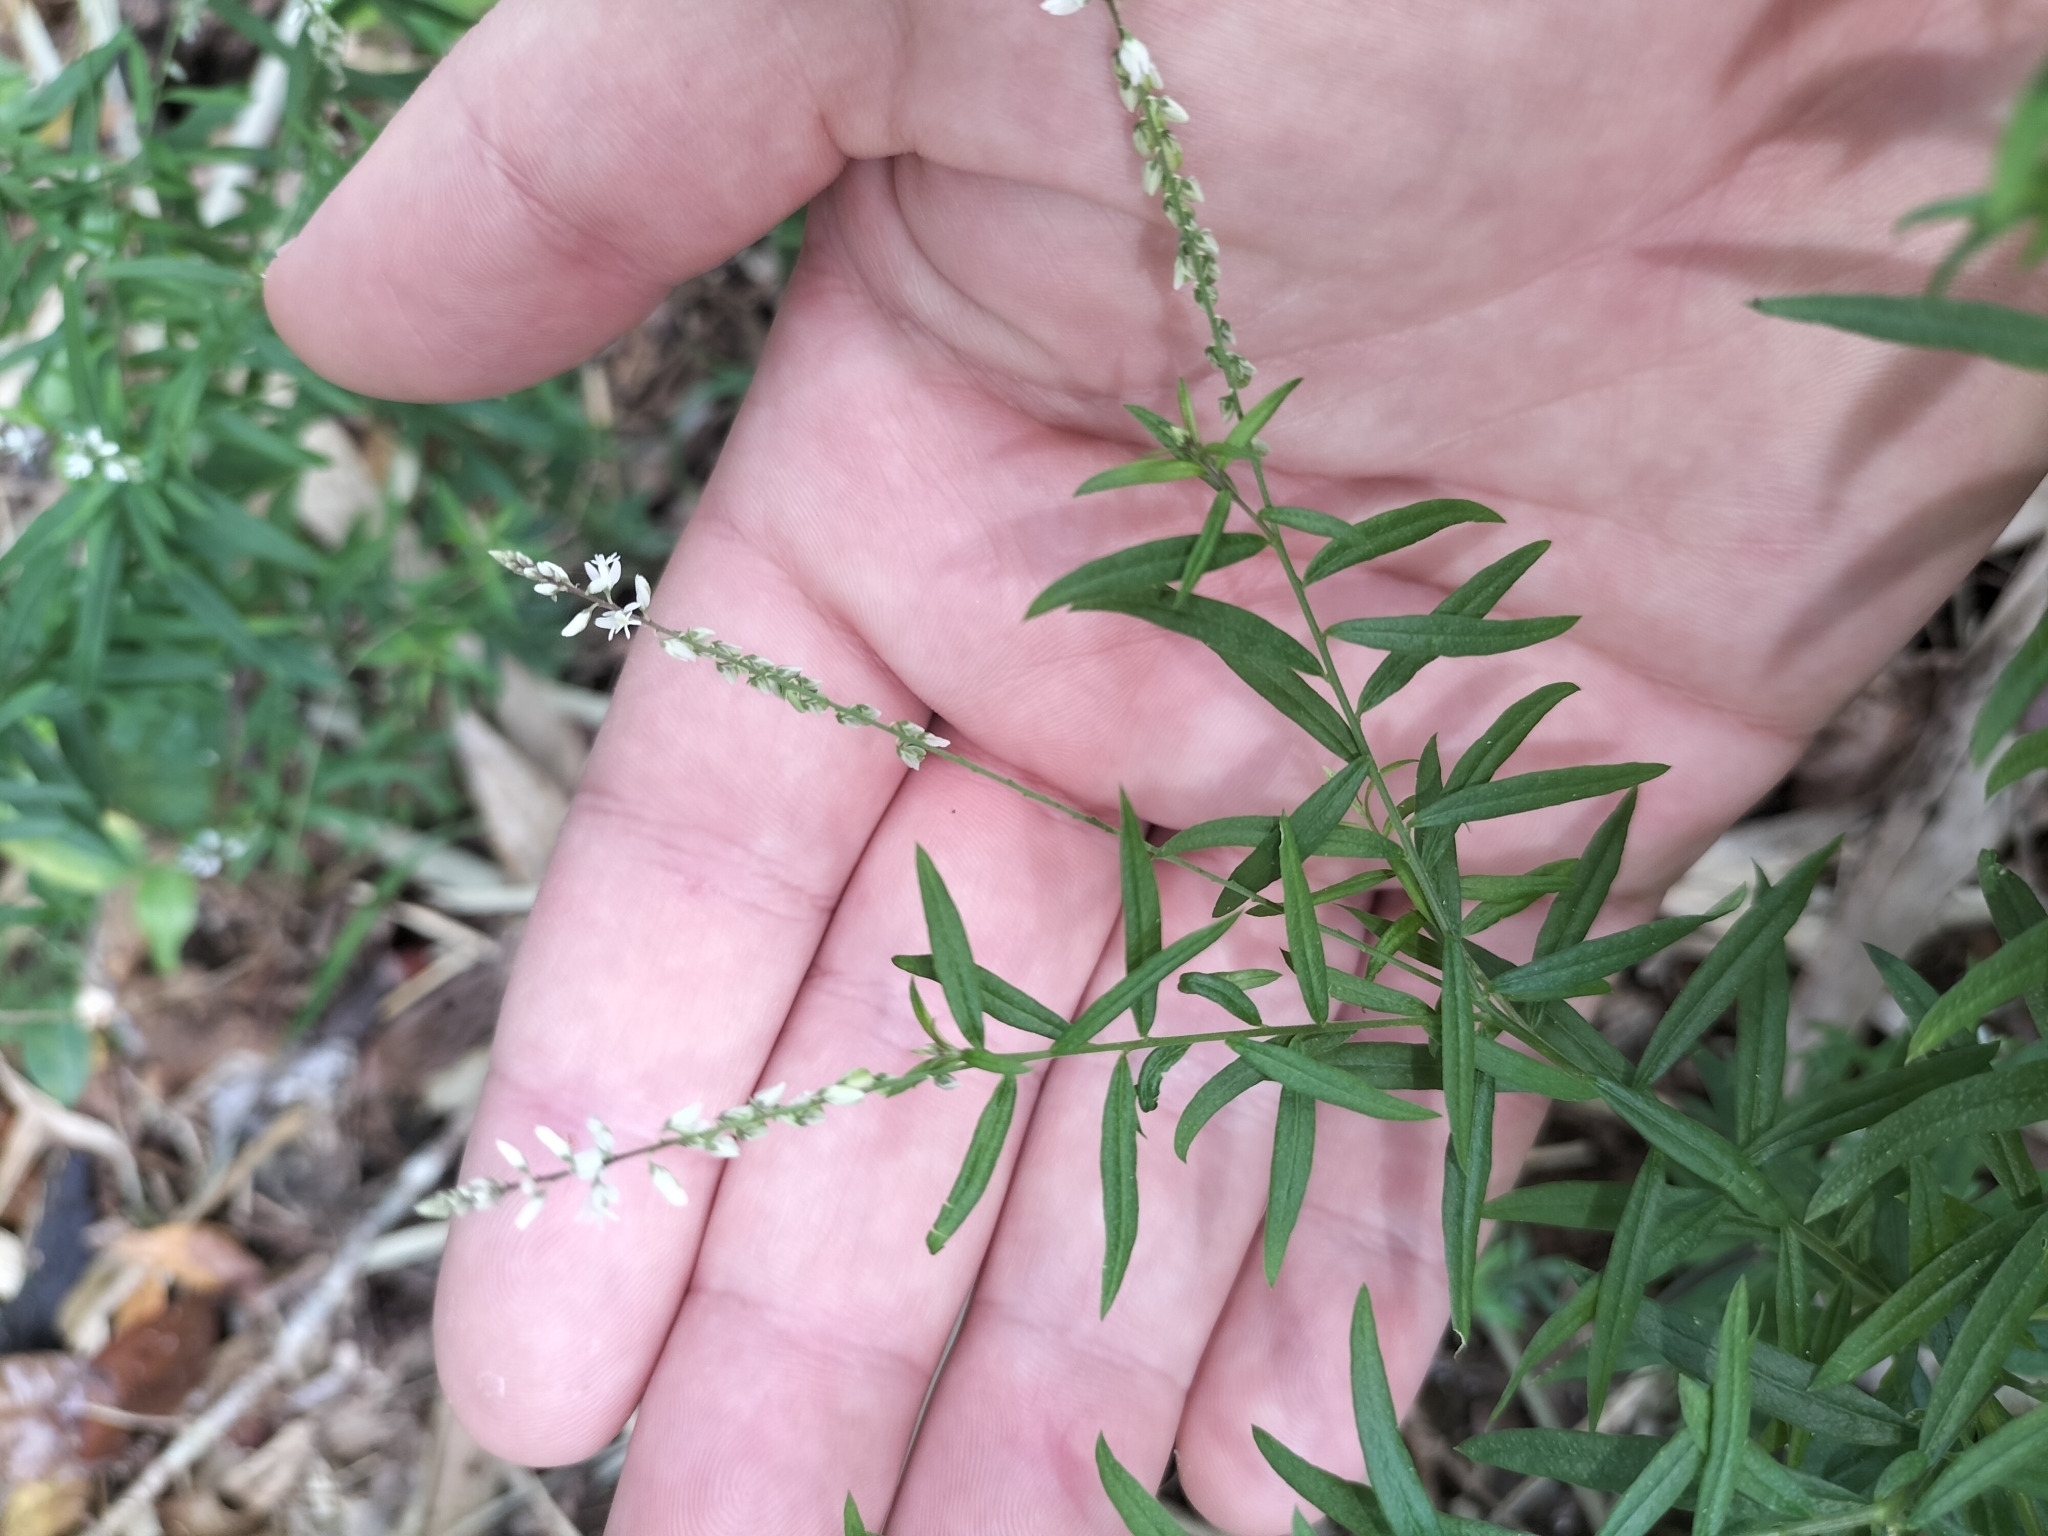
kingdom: Plantae
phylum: Tracheophyta
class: Magnoliopsida
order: Fabales
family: Polygalaceae
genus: Polygala
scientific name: Polygala paniculata
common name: Orosne
